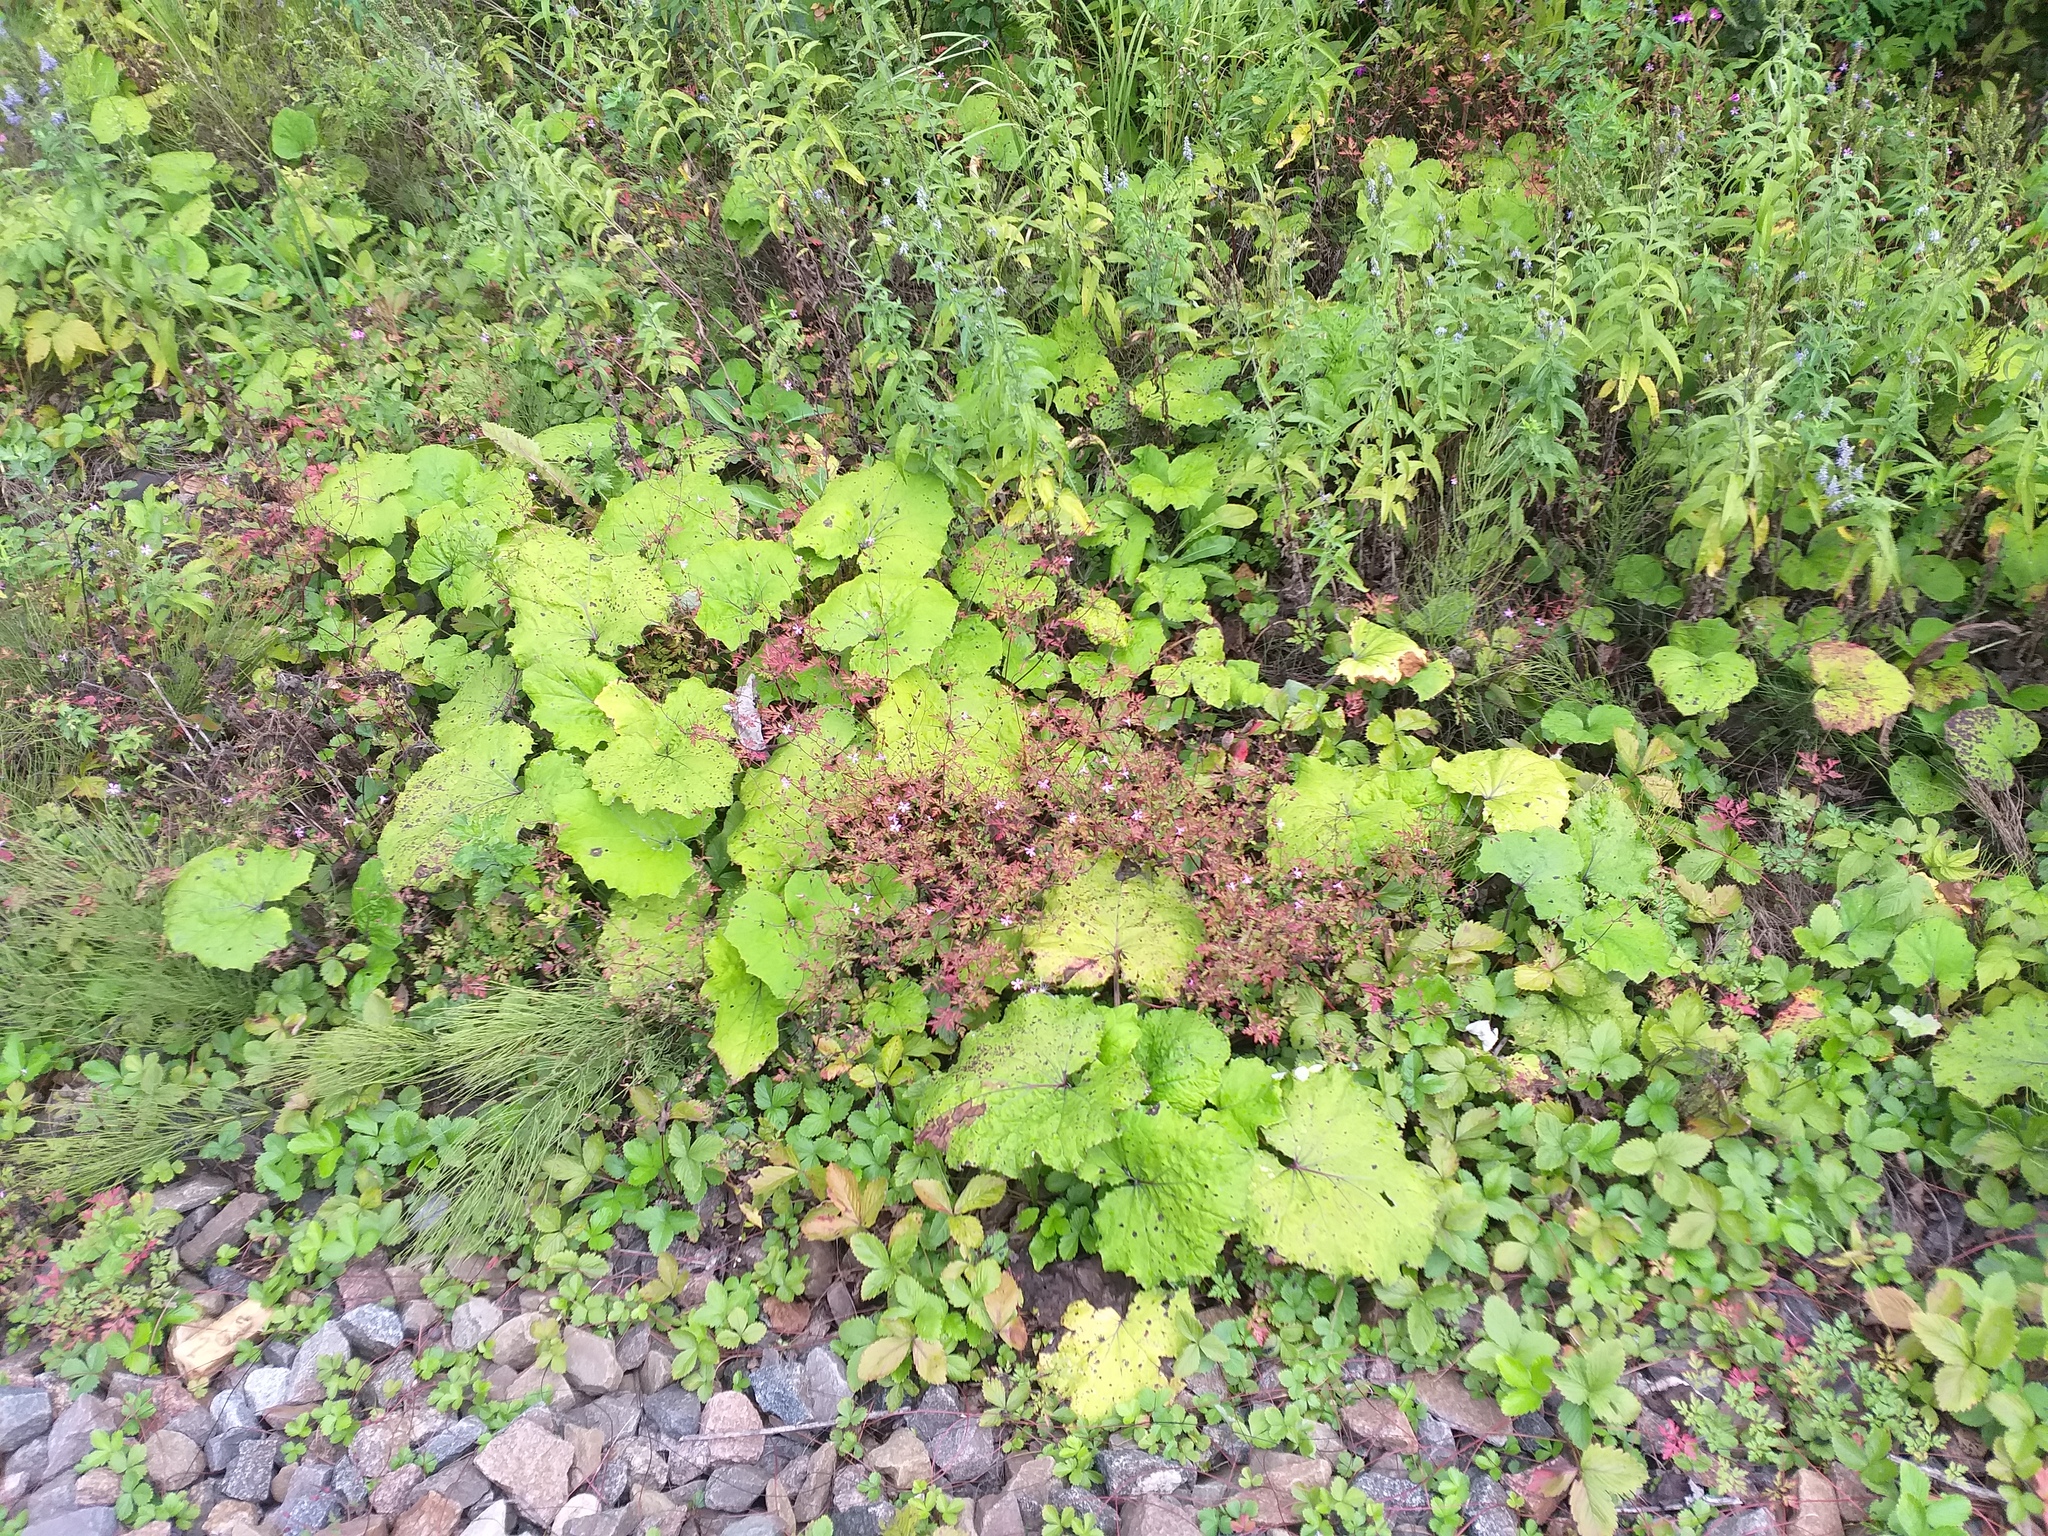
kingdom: Plantae
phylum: Tracheophyta
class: Magnoliopsida
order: Asterales
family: Asteraceae
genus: Tussilago
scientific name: Tussilago farfara
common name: Coltsfoot
